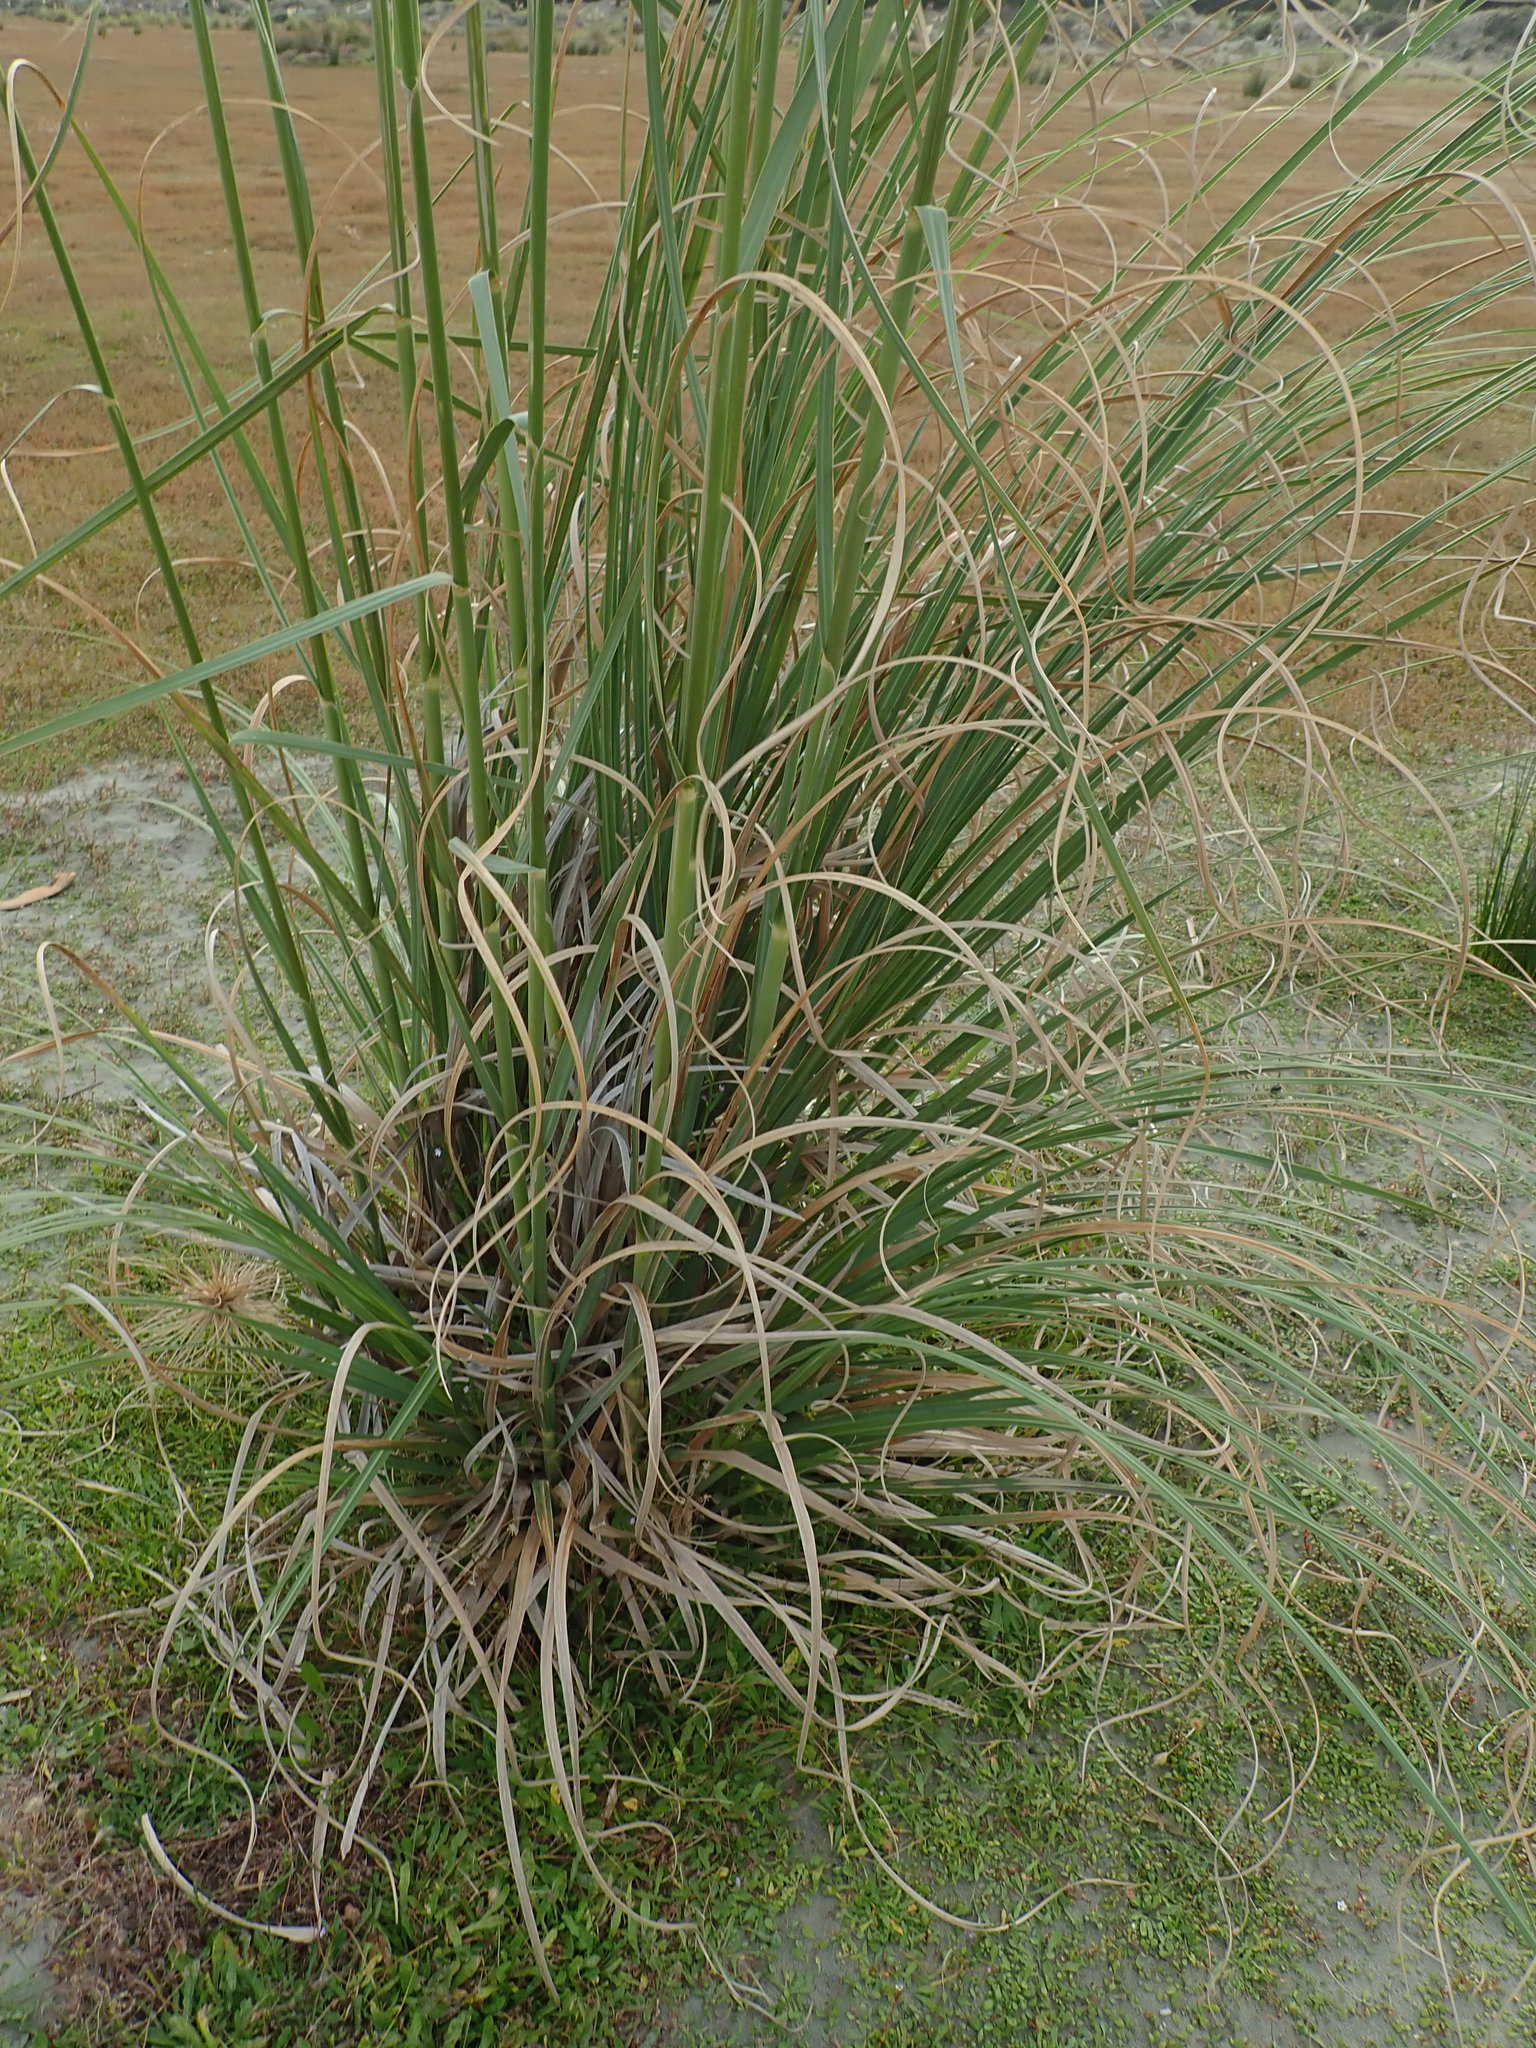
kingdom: Plantae
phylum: Tracheophyta
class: Liliopsida
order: Poales
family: Poaceae
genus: Cortaderia
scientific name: Cortaderia selloana
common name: Uruguayan pampas grass
